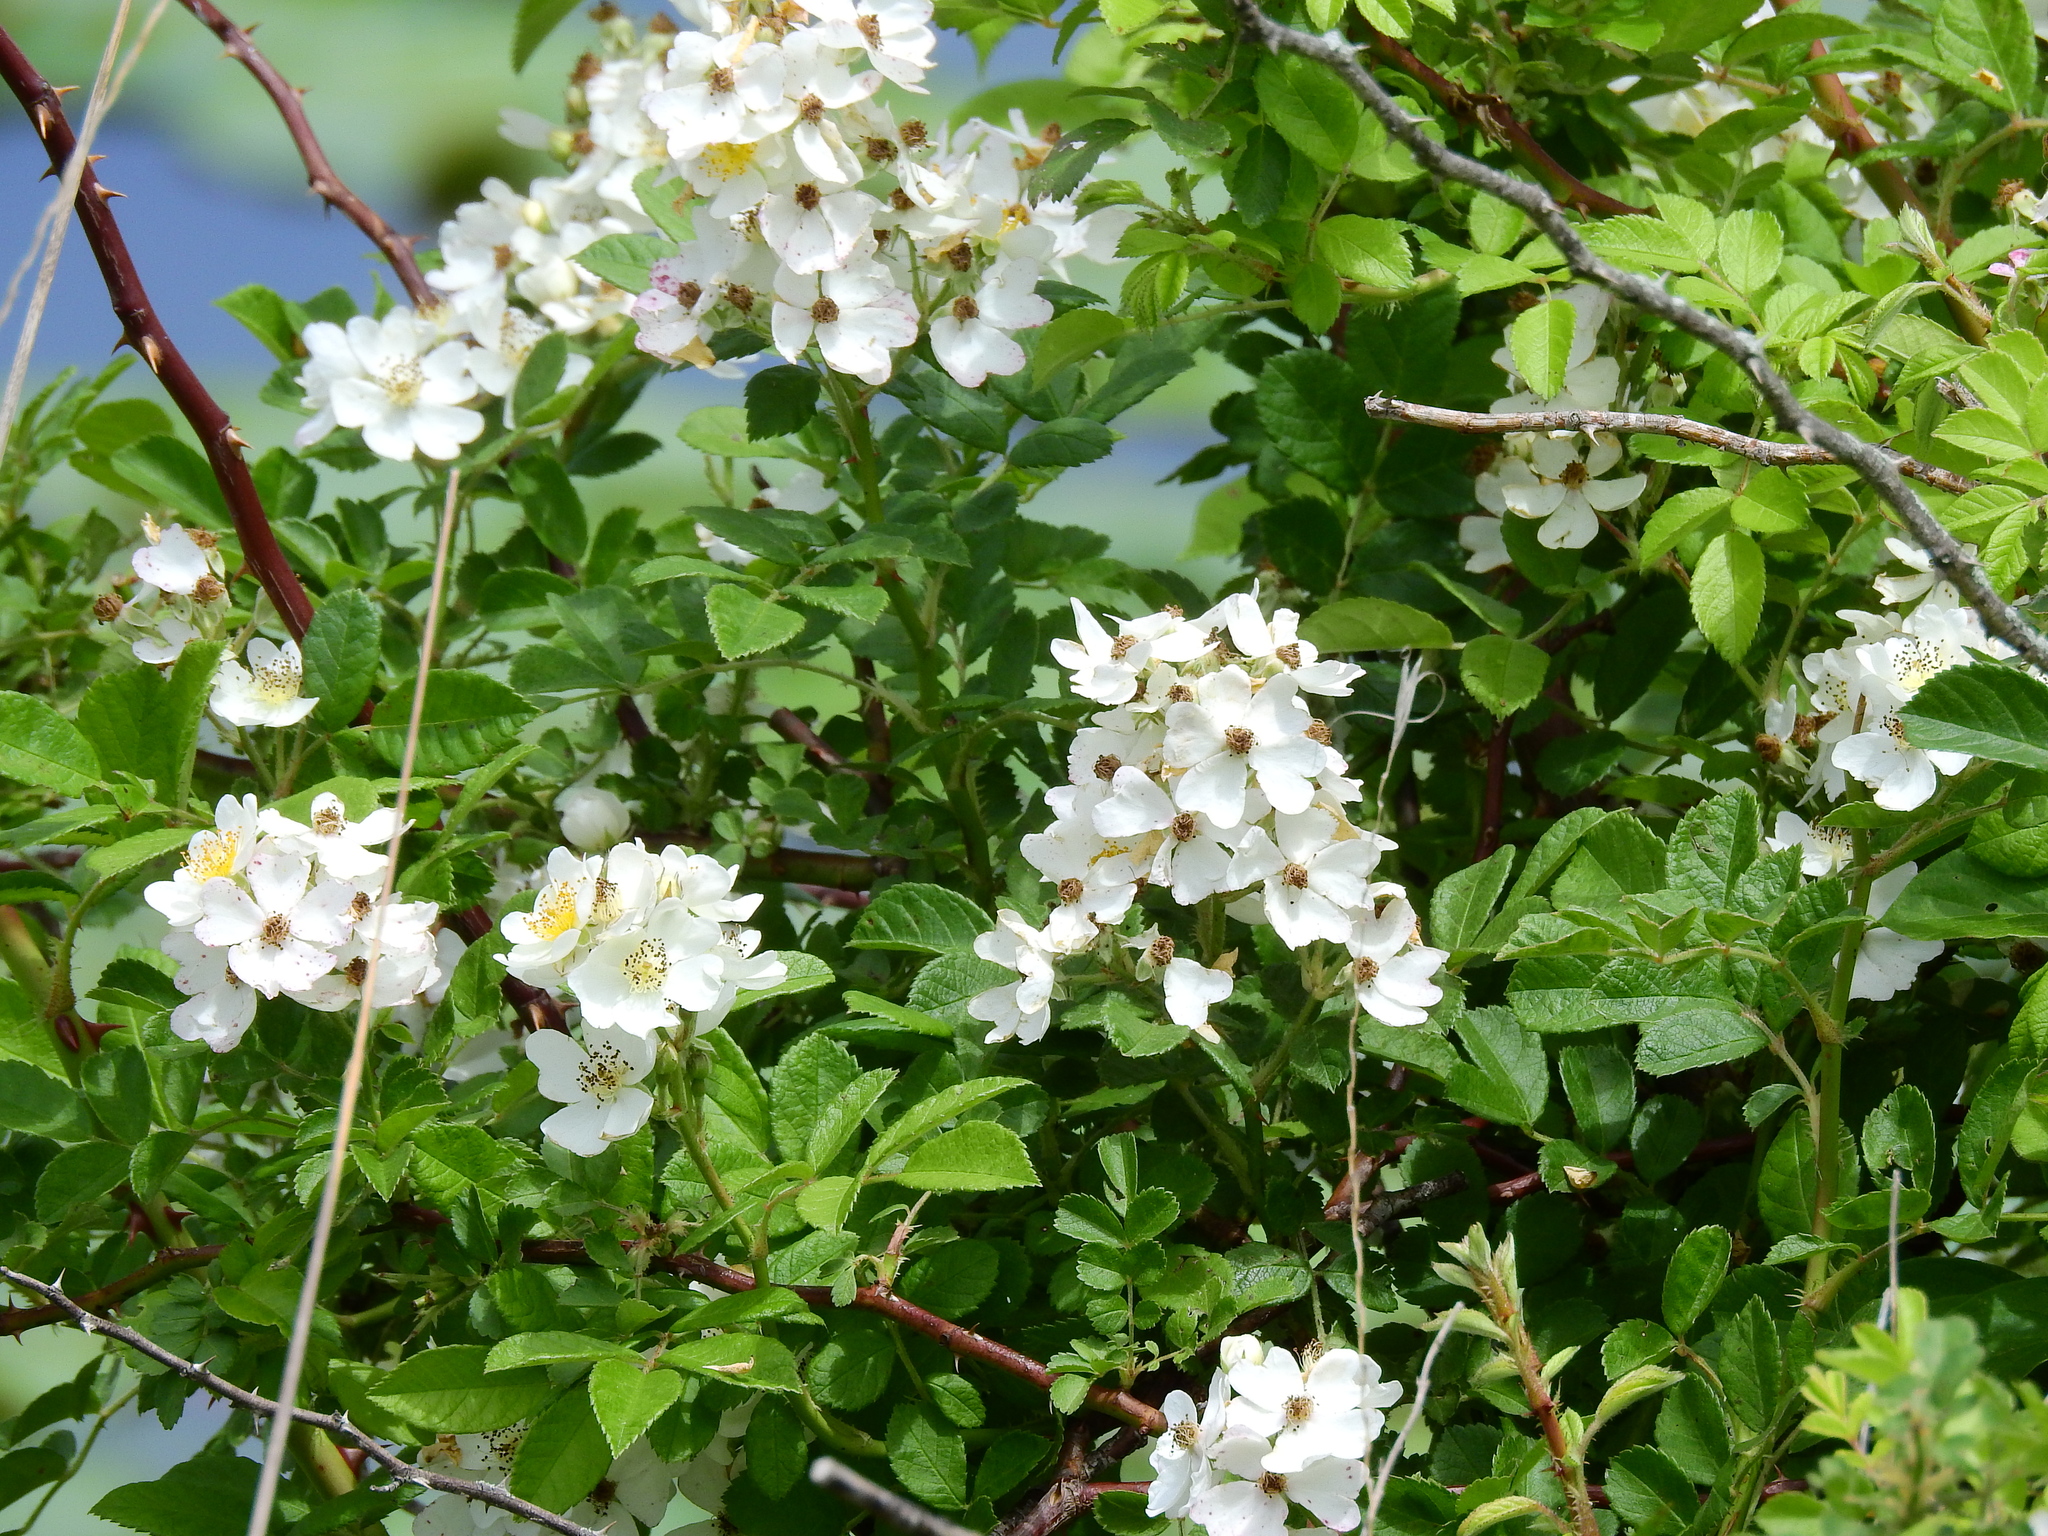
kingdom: Plantae
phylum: Tracheophyta
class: Magnoliopsida
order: Rosales
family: Rosaceae
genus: Rosa
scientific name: Rosa multiflora
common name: Multiflora rose
